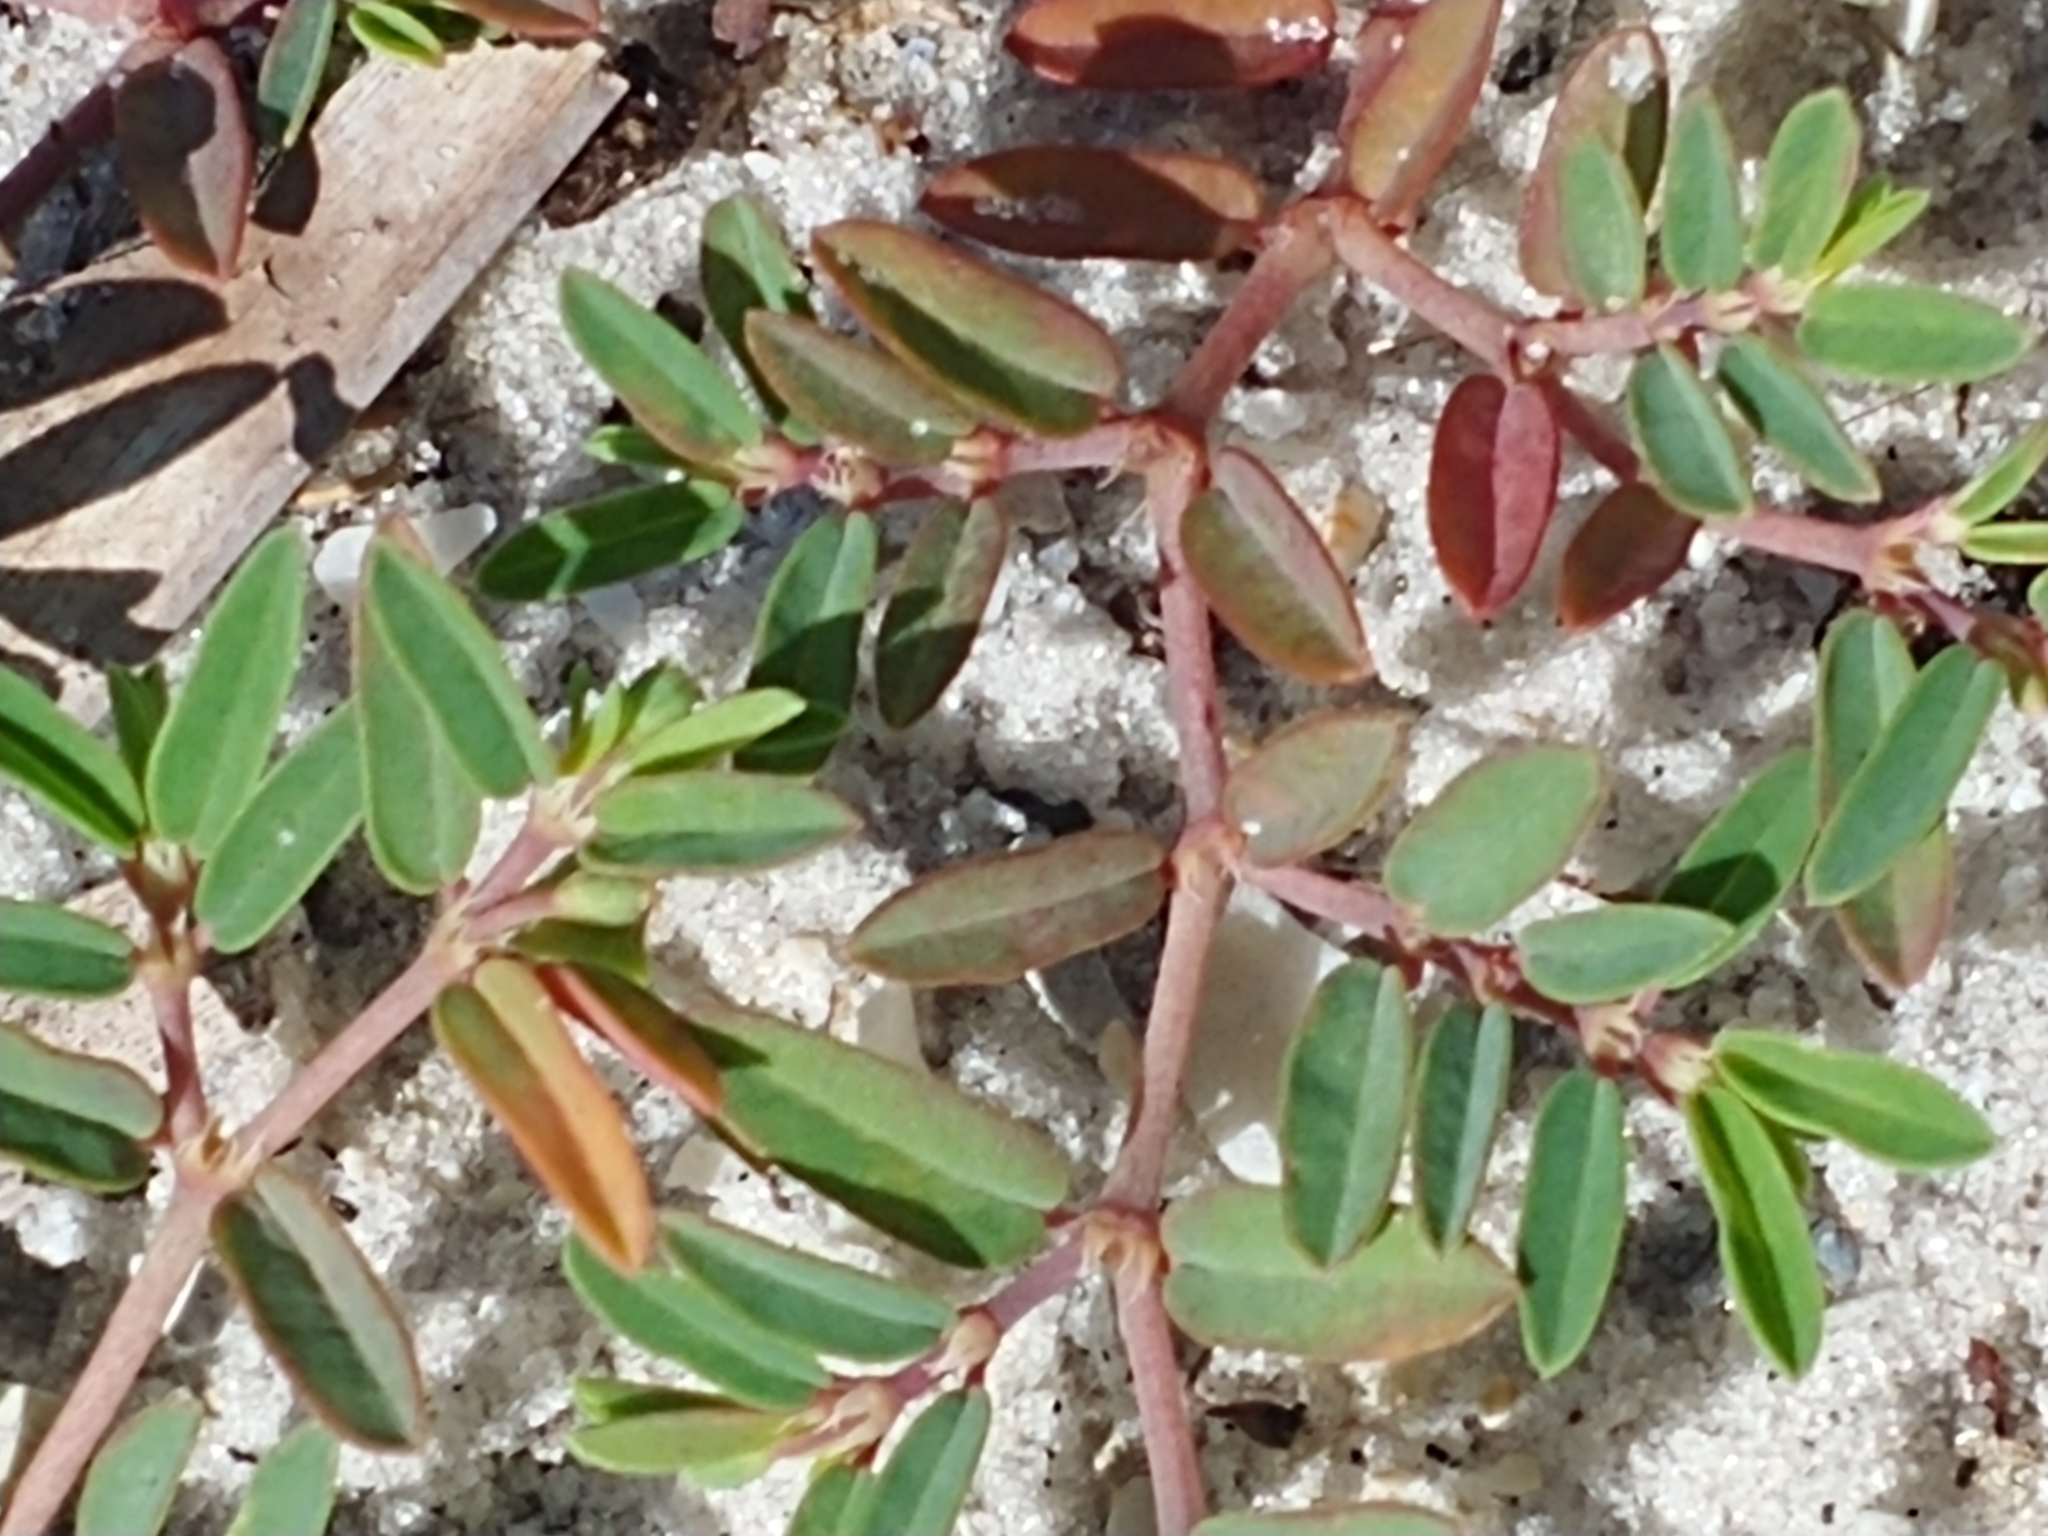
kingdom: Plantae
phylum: Tracheophyta
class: Magnoliopsida
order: Malpighiales
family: Euphorbiaceae
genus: Euphorbia
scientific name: Euphorbia bombensis
